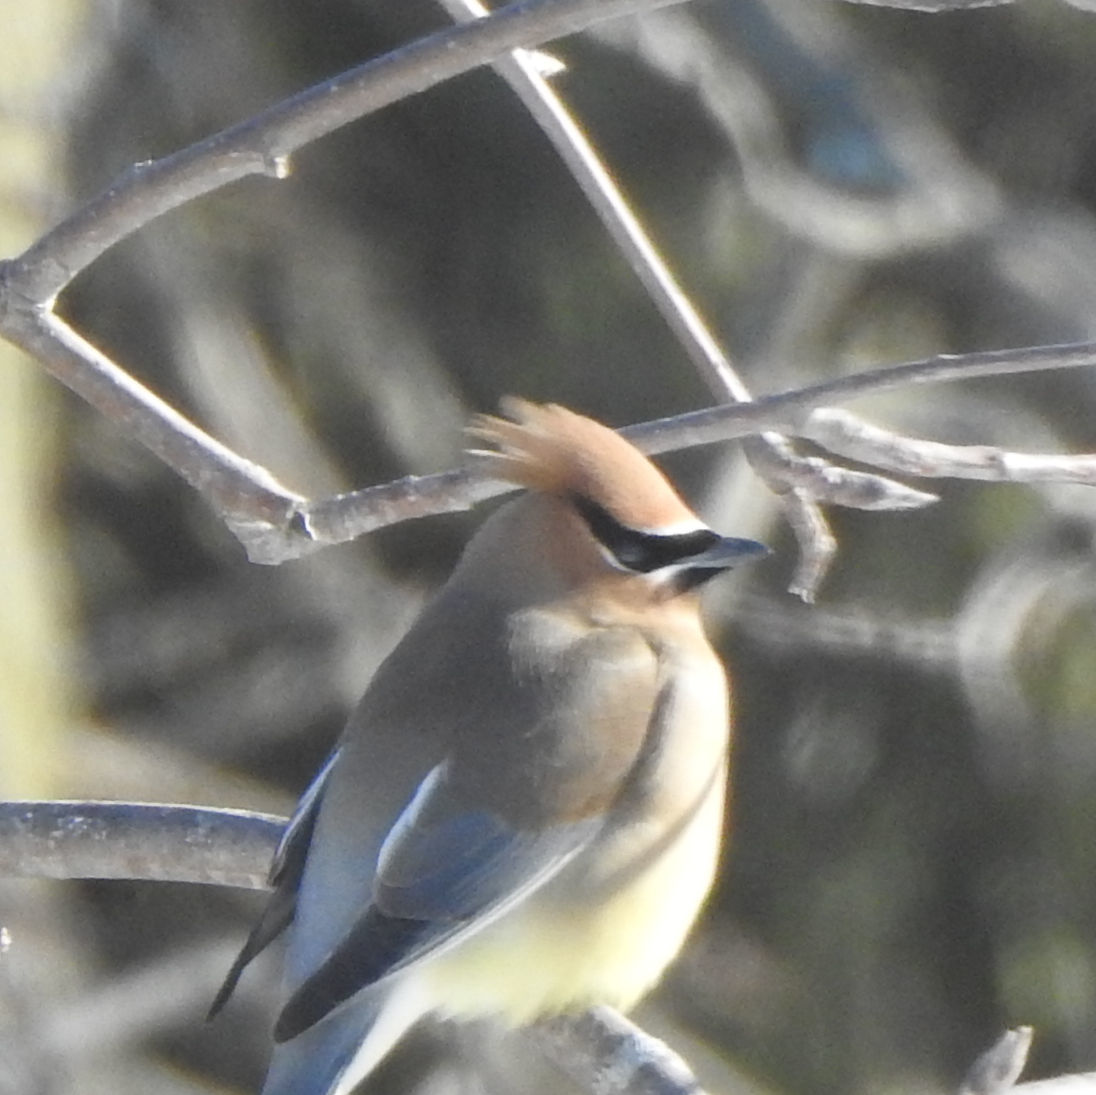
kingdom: Animalia
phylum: Chordata
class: Aves
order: Passeriformes
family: Bombycillidae
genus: Bombycilla
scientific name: Bombycilla cedrorum
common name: Cedar waxwing
